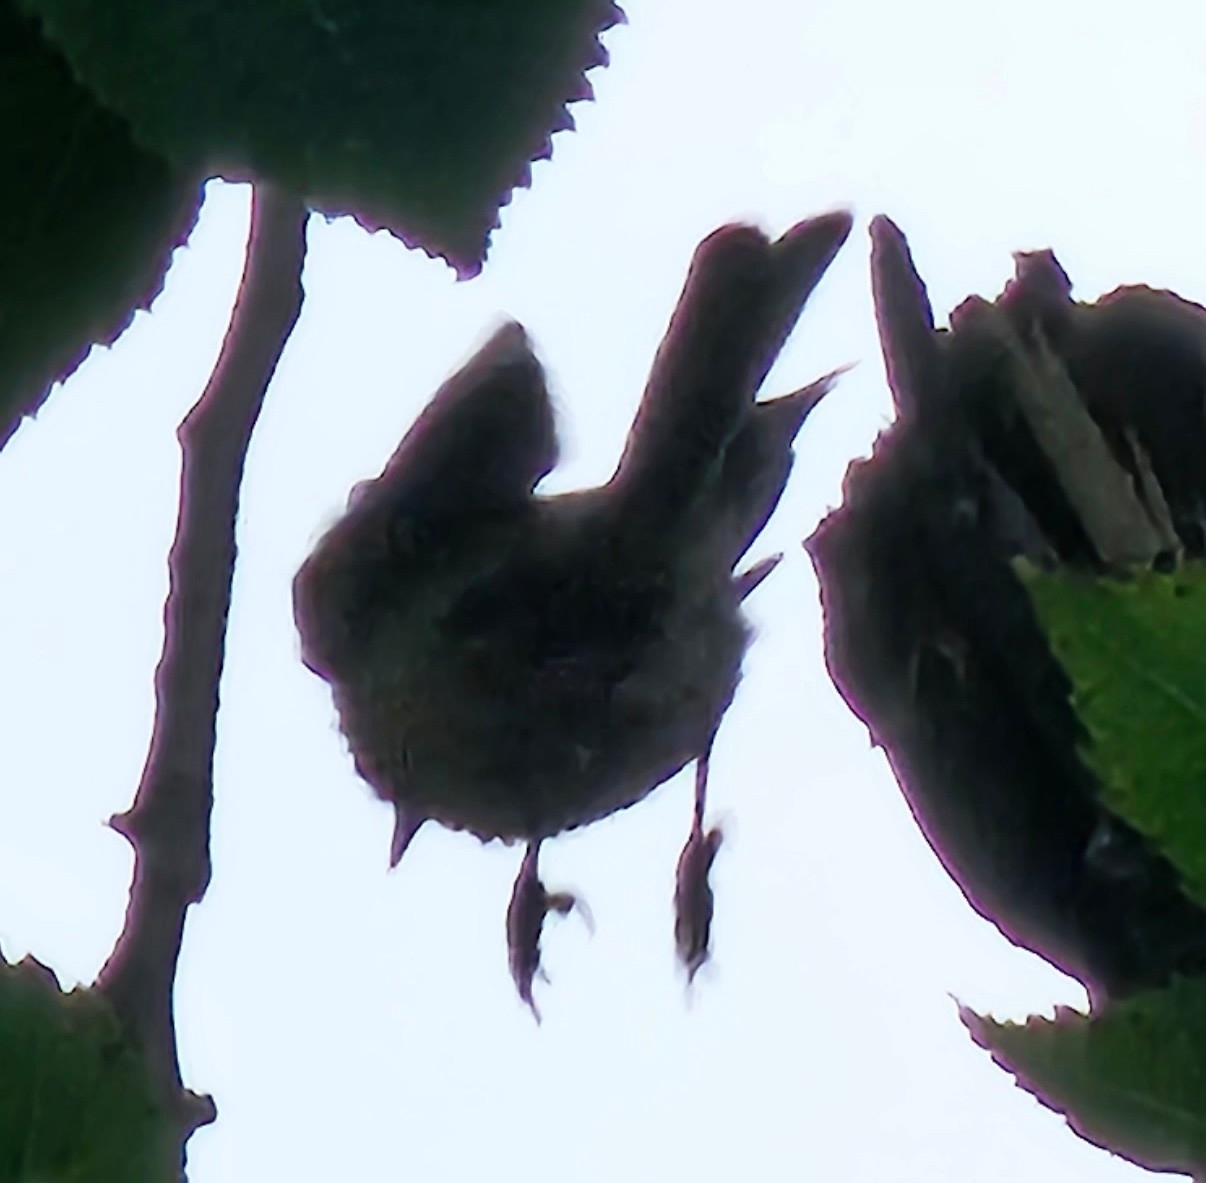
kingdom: Animalia
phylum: Chordata
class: Aves
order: Passeriformes
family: Paridae
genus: Poecile
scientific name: Poecile atricapillus
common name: Black-capped chickadee
